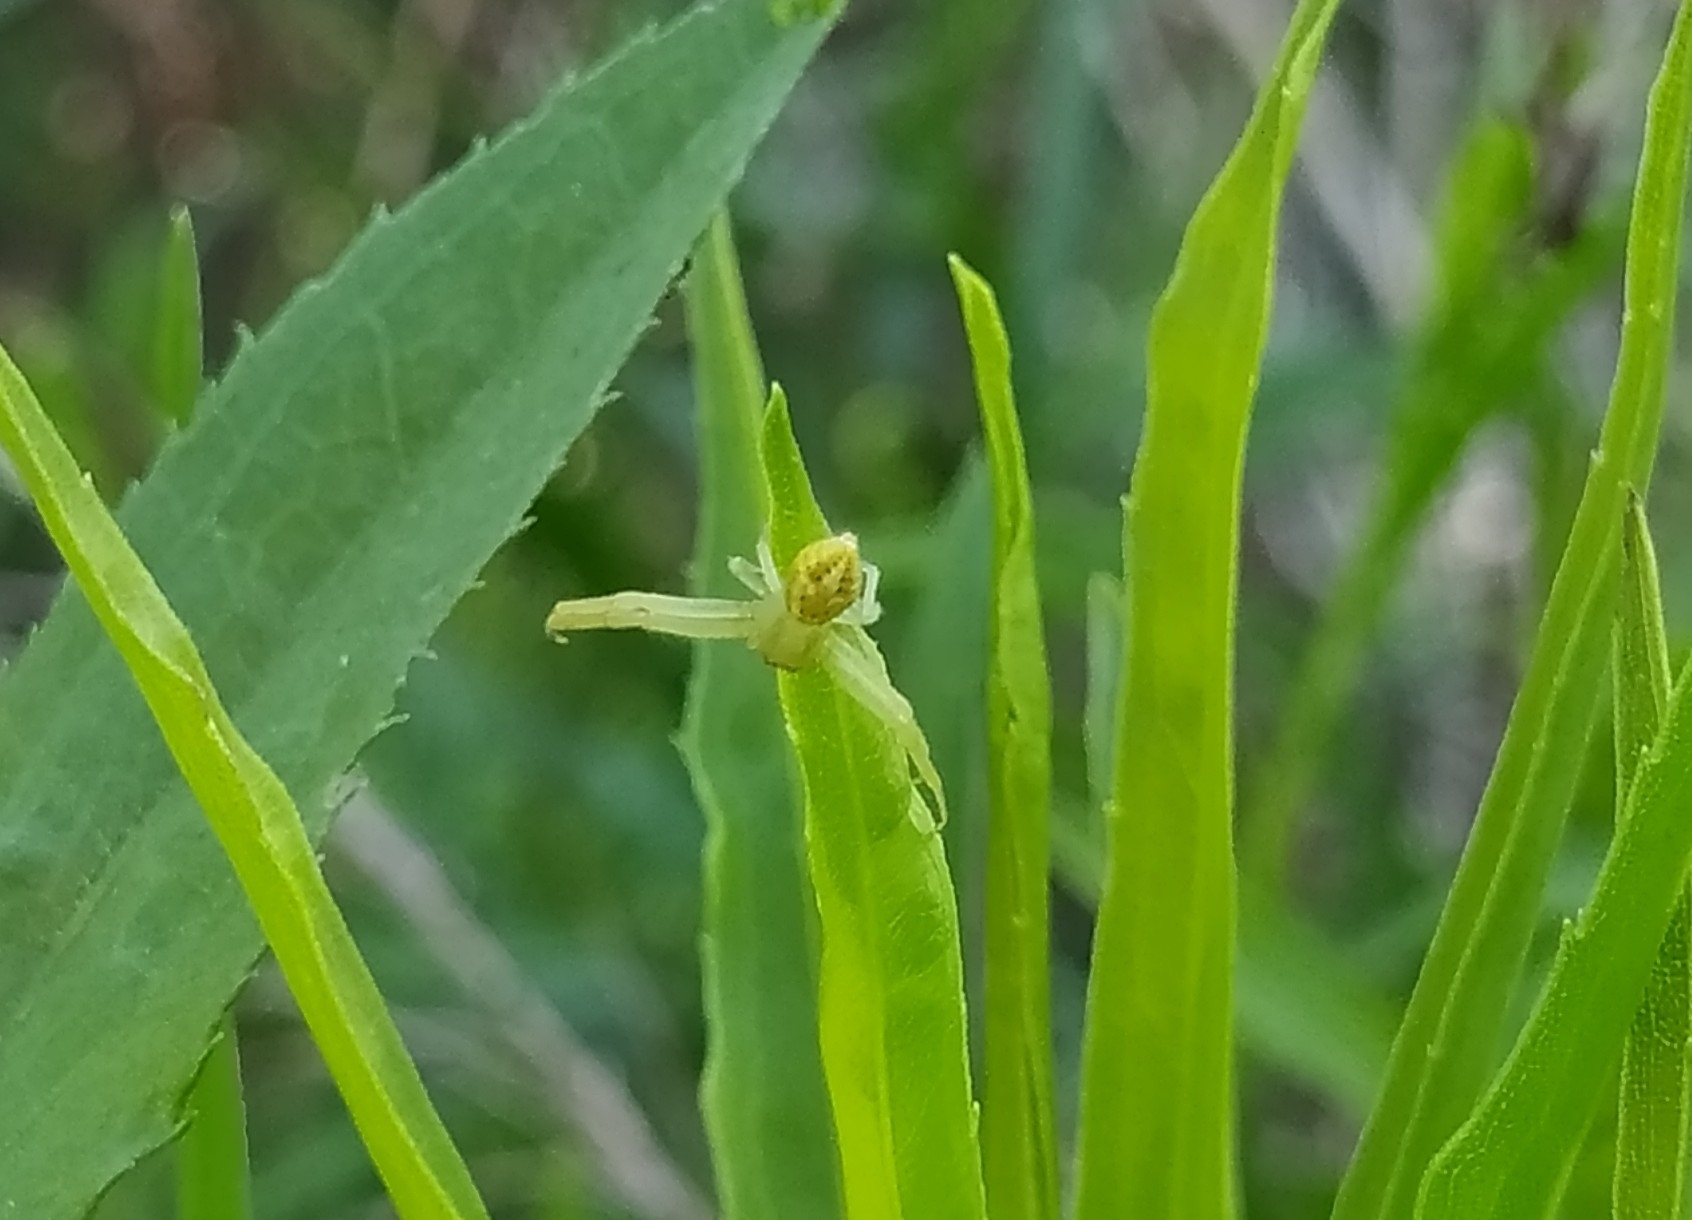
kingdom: Animalia
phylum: Arthropoda
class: Arachnida
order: Araneae
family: Thomisidae
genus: Misumenops
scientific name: Misumenops
